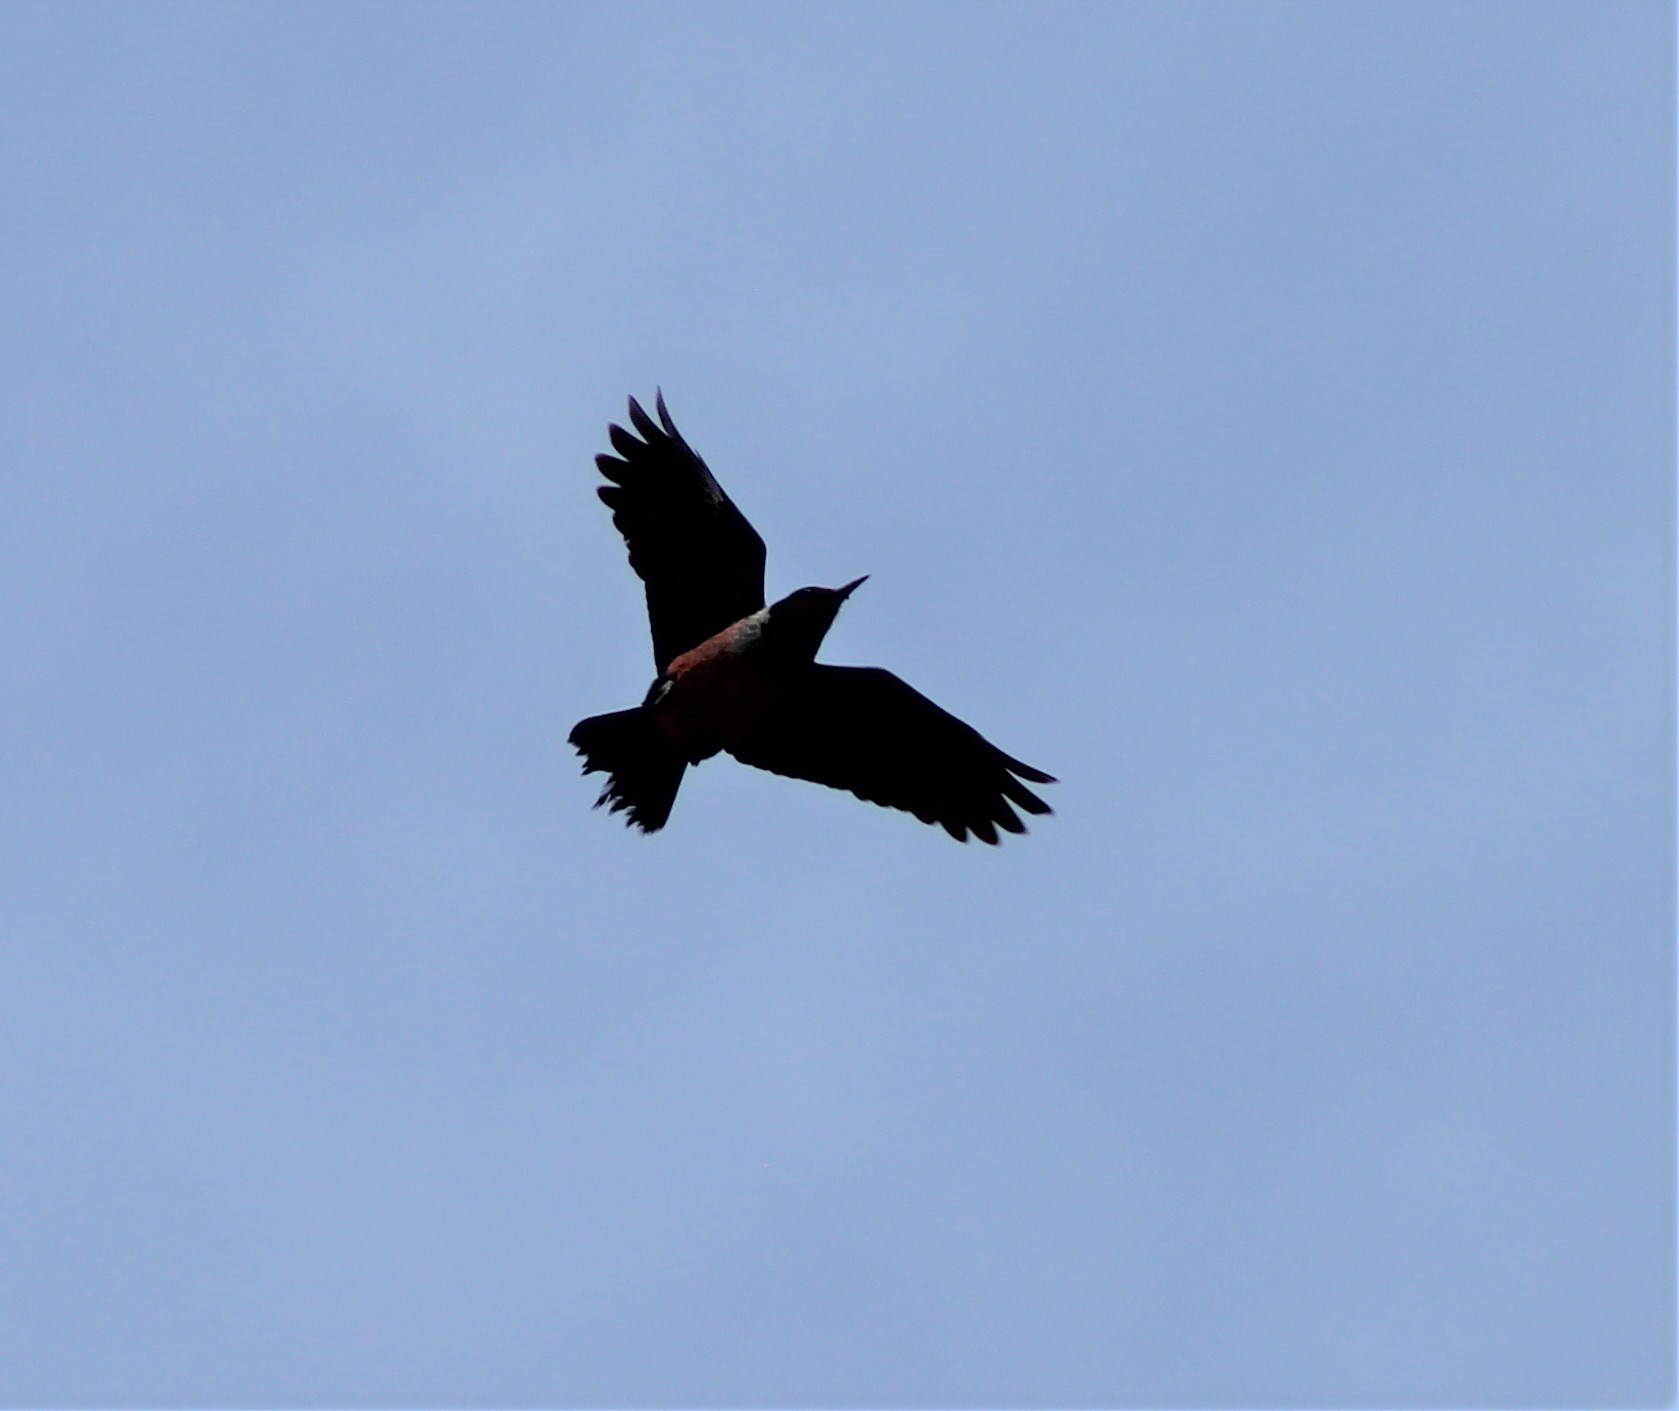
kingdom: Animalia
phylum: Chordata
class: Aves
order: Piciformes
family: Picidae
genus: Melanerpes
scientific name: Melanerpes lewis
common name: Lewis's woodpecker
